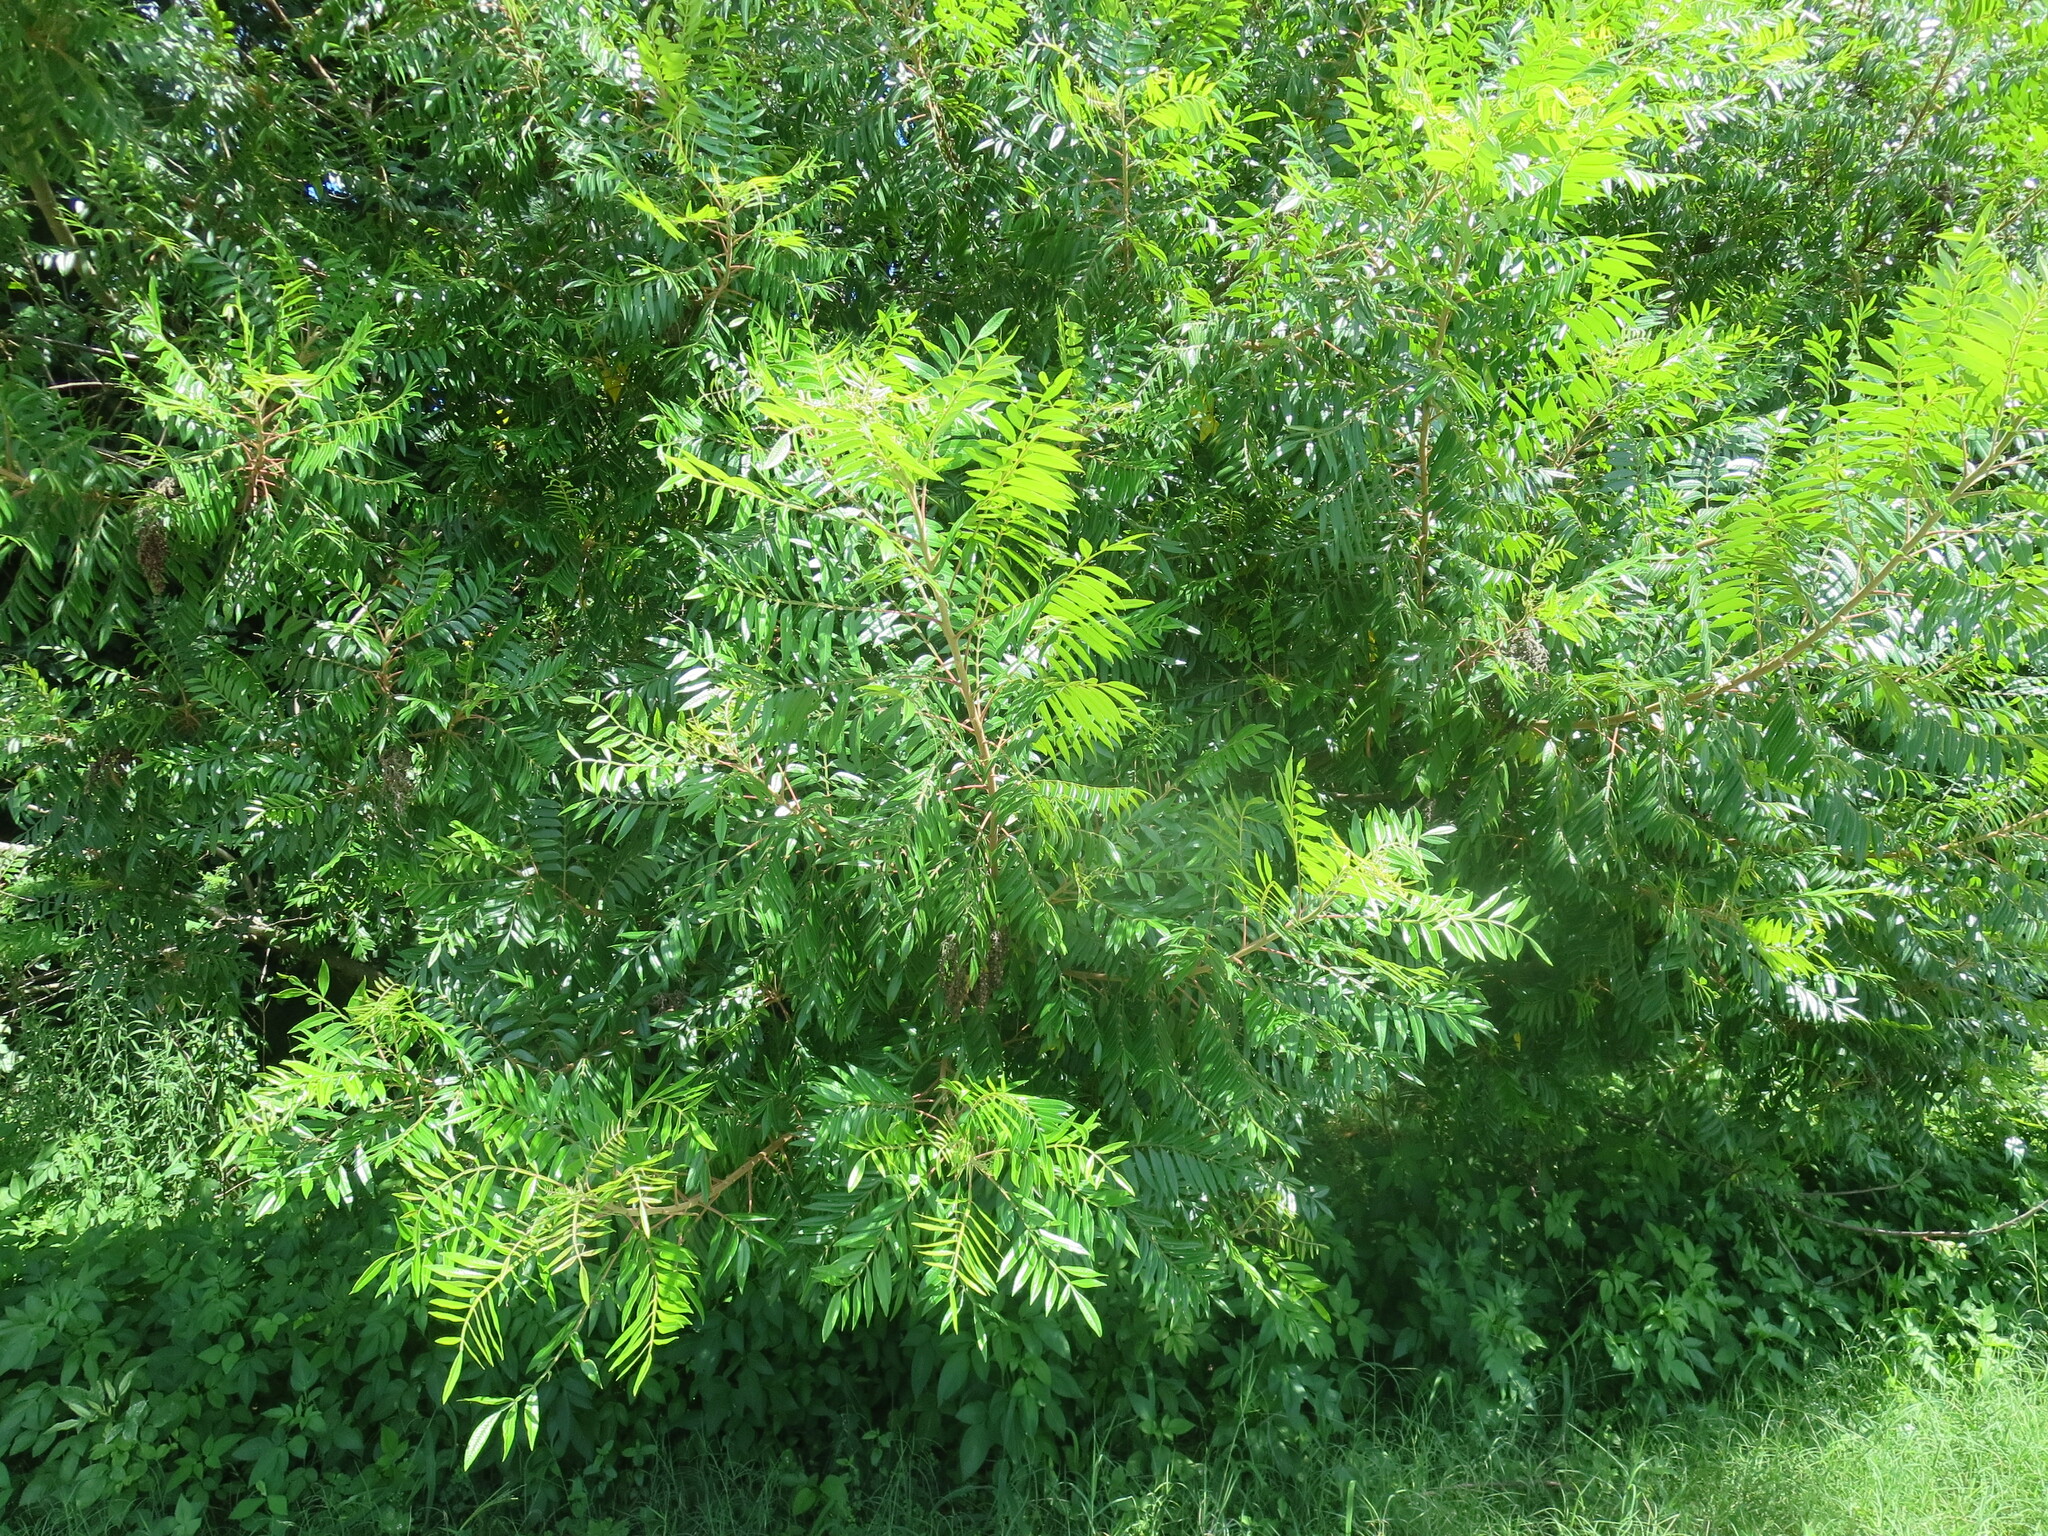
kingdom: Plantae
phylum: Tracheophyta
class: Magnoliopsida
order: Sapindales
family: Anacardiaceae
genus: Rhus
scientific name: Rhus copallina
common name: Shining sumac
